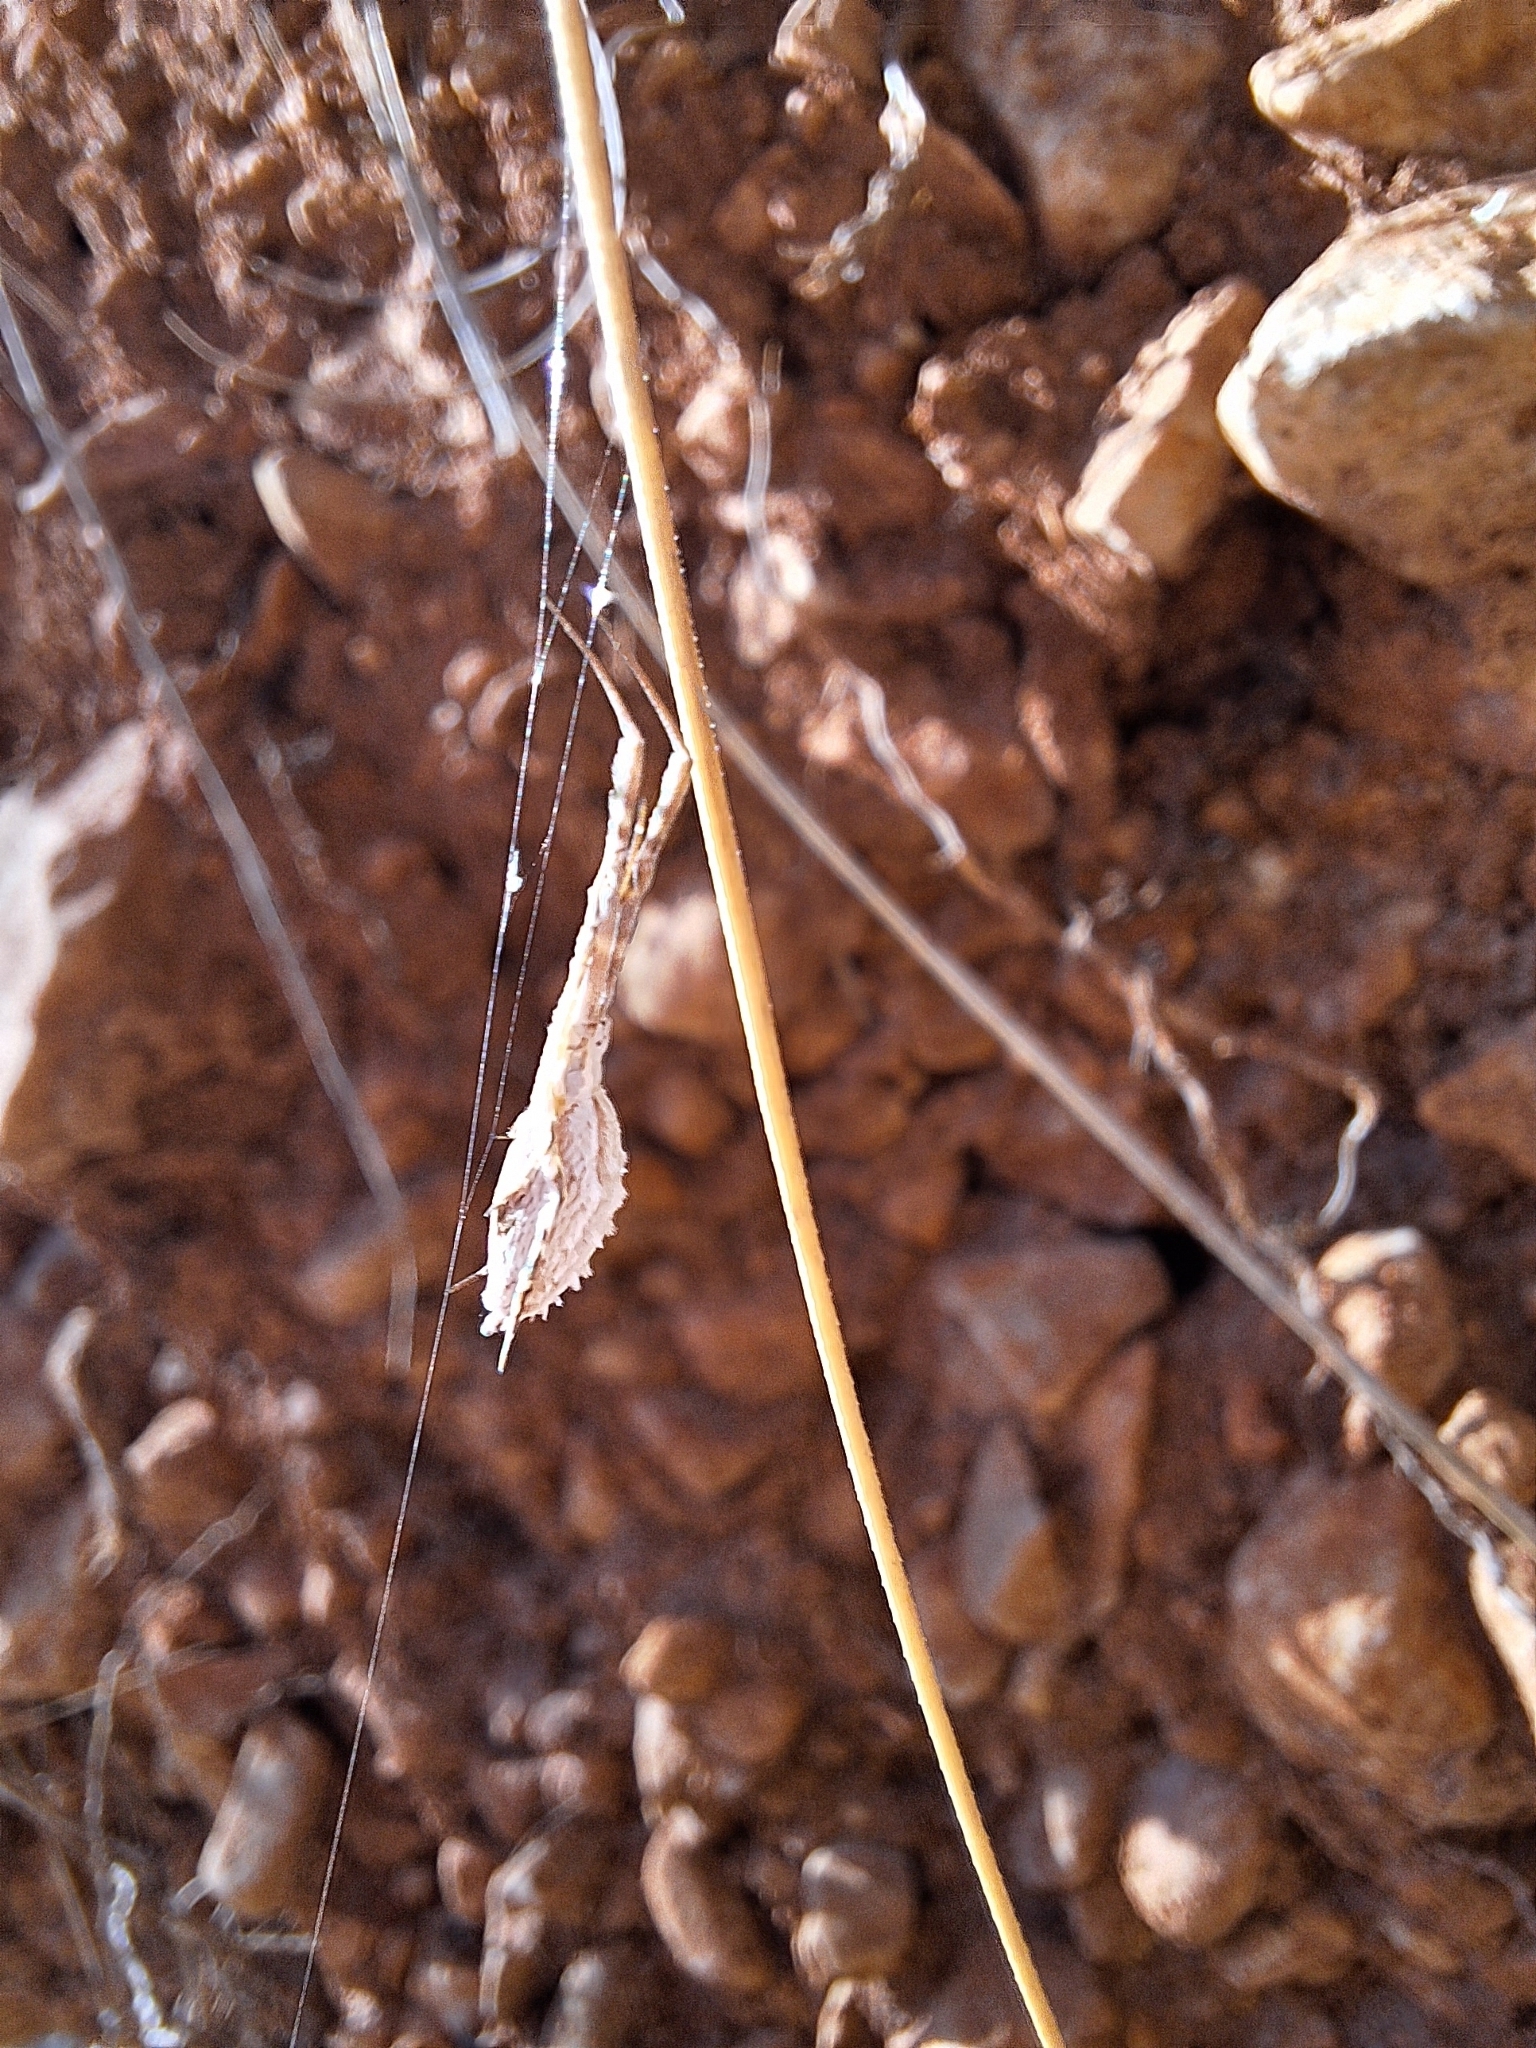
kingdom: Animalia
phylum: Arthropoda
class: Arachnida
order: Araneae
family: Uloboridae
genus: Uloborus
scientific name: Uloborus walckenaerius
